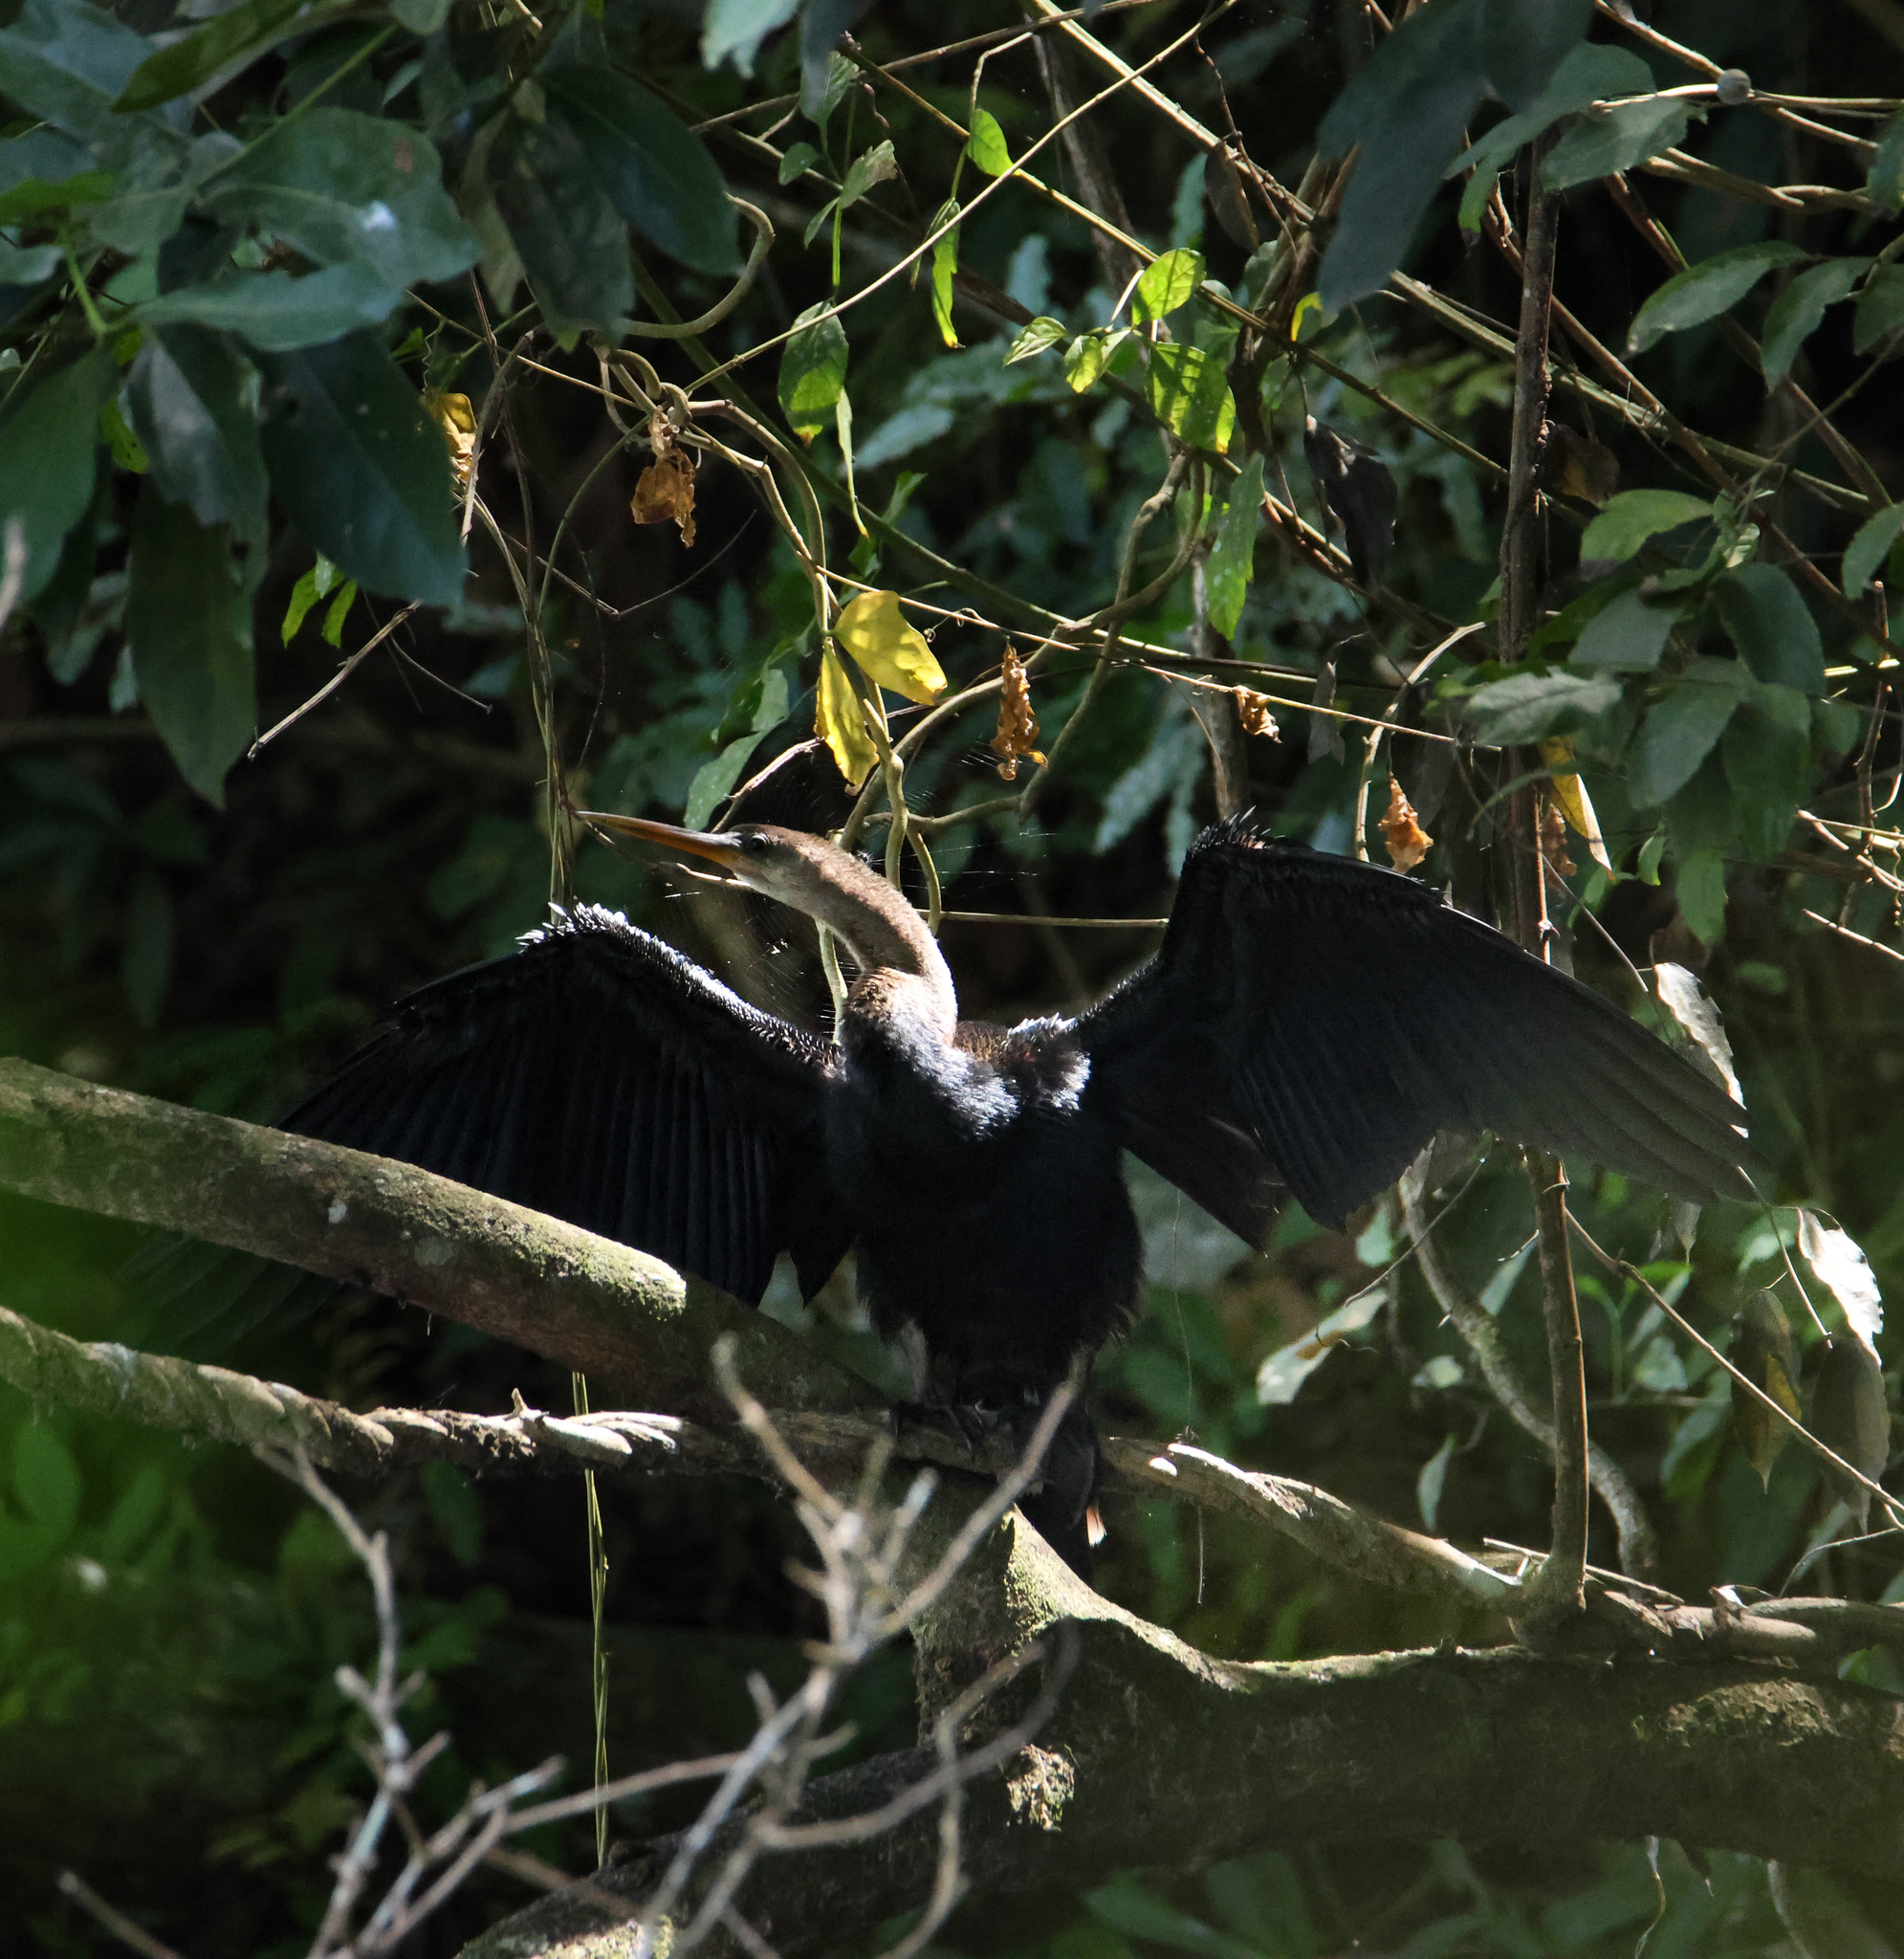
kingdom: Animalia
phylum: Chordata
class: Aves
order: Suliformes
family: Anhingidae
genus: Anhinga
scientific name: Anhinga anhinga
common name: Anhinga
